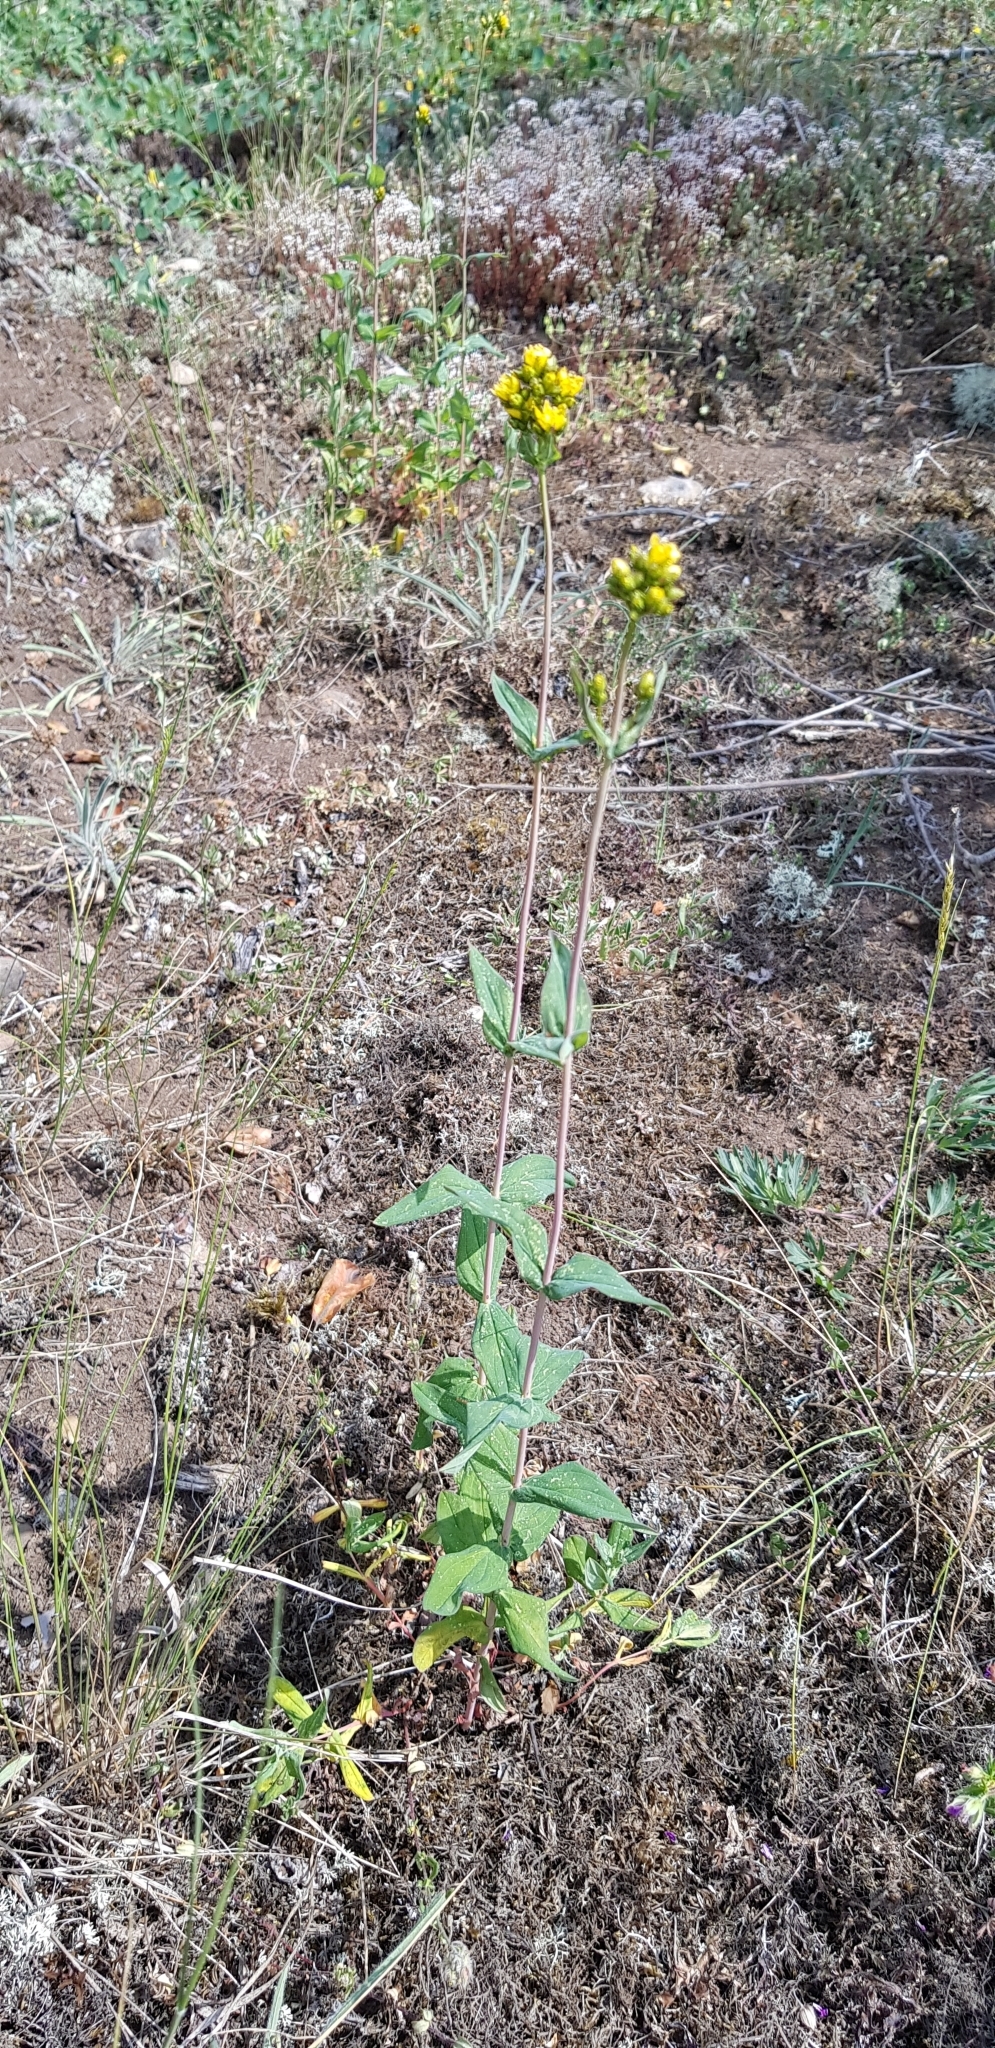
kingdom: Plantae
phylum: Tracheophyta
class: Magnoliopsida
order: Malpighiales
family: Hypericaceae
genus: Hypericum
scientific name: Hypericum montanum
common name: Pale st. john's-wort
